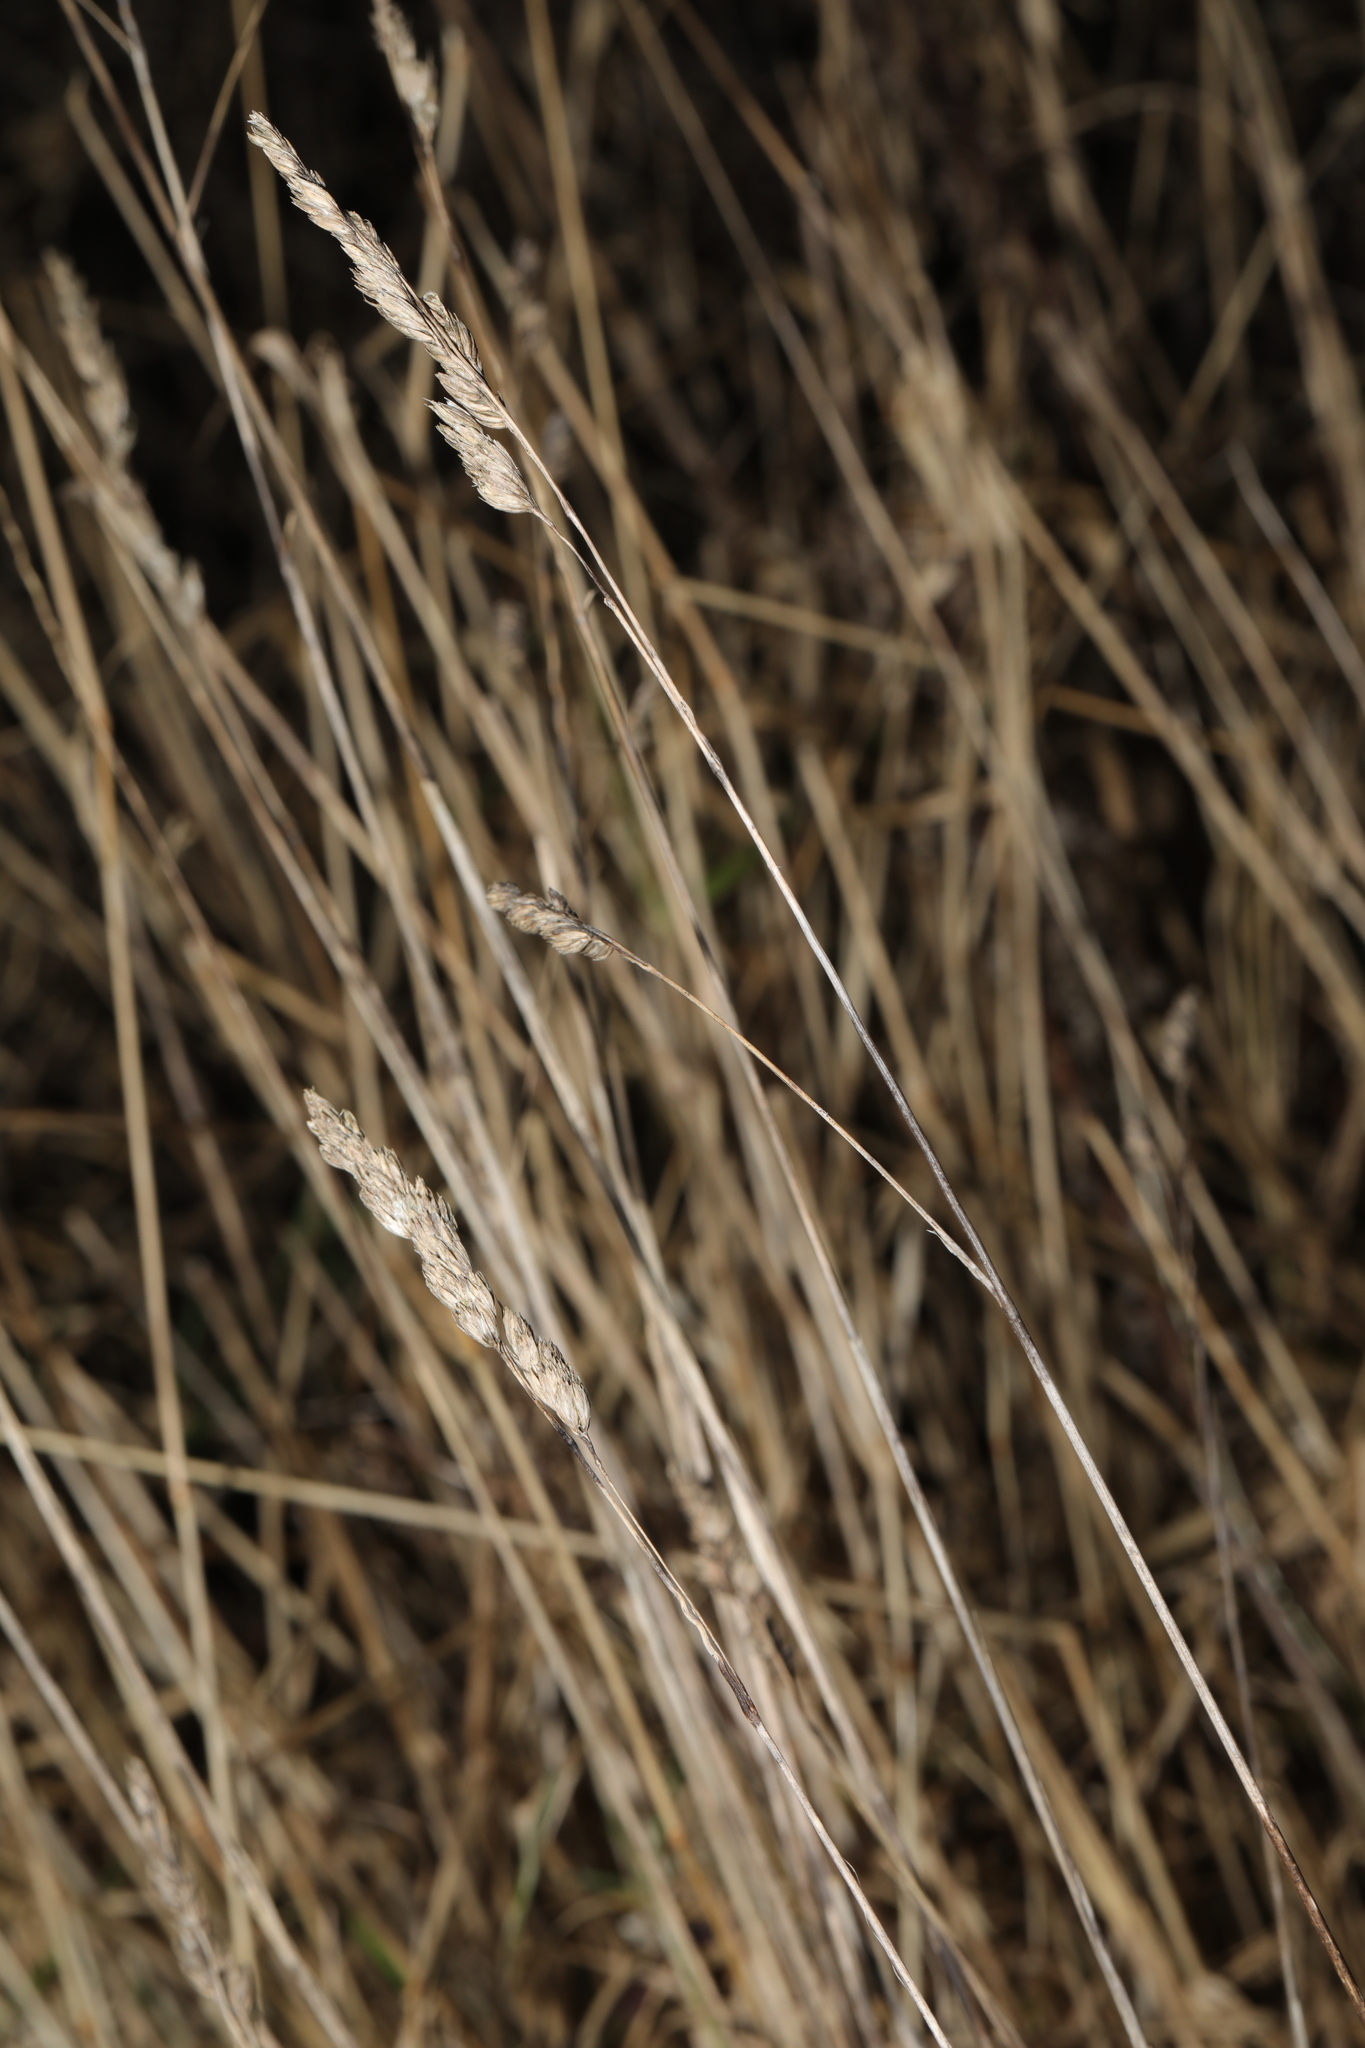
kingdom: Plantae
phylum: Tracheophyta
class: Liliopsida
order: Poales
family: Poaceae
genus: Dactylis
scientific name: Dactylis glomerata
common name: Orchardgrass
